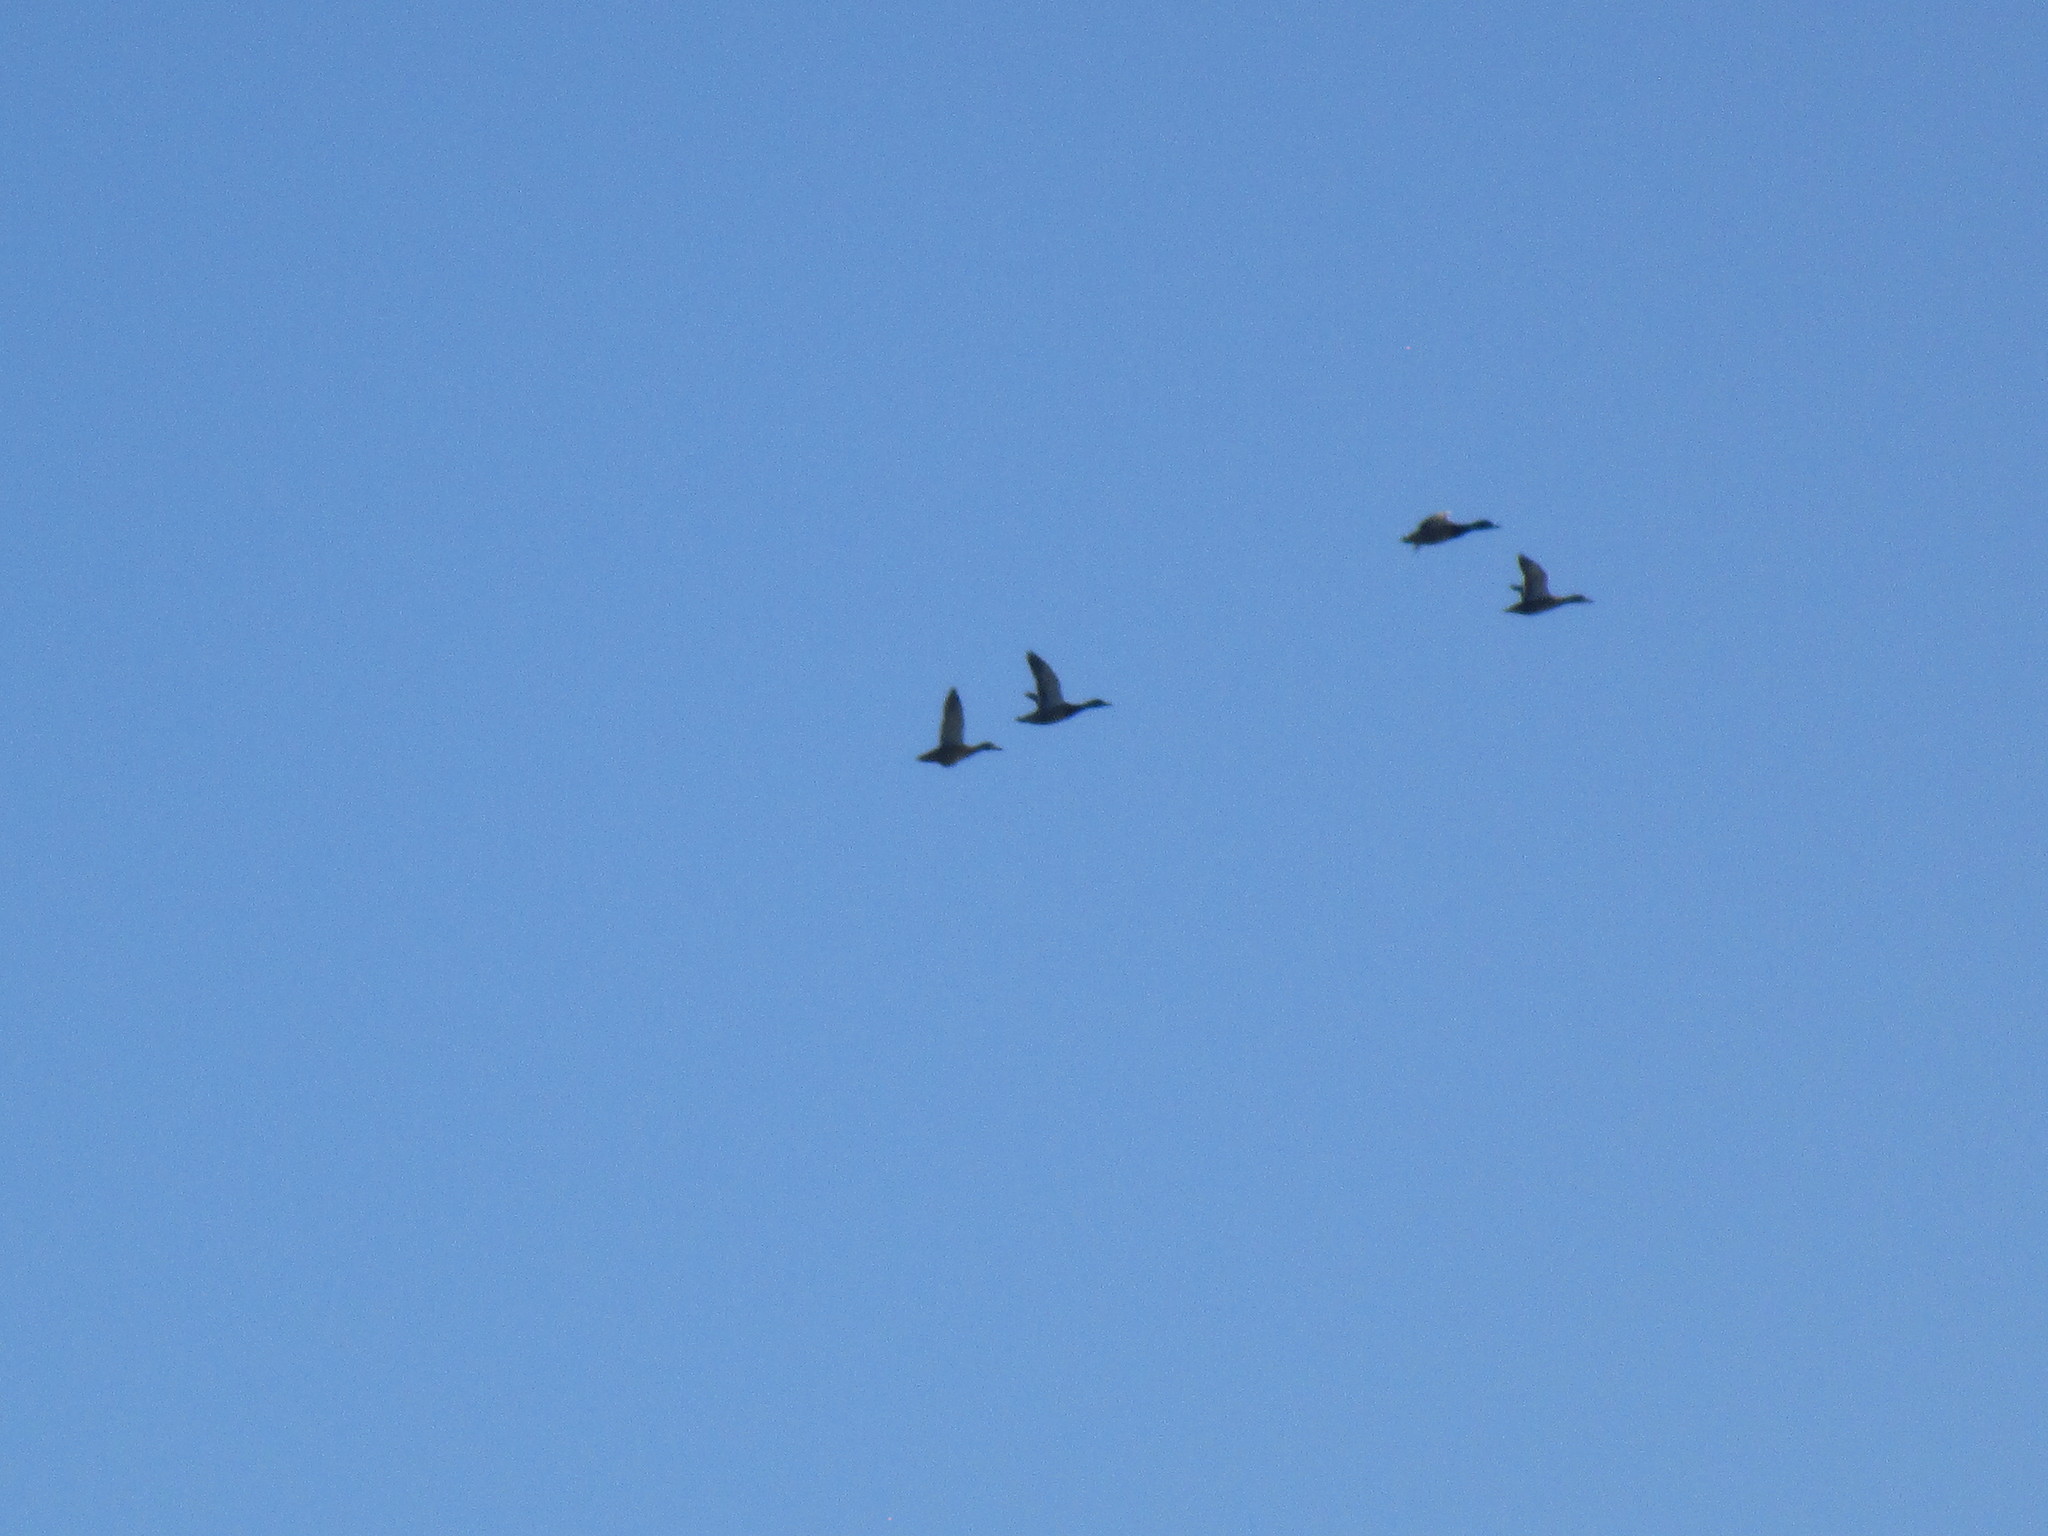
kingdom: Animalia
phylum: Chordata
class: Aves
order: Anseriformes
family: Anatidae
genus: Anas
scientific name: Anas platyrhynchos
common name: Mallard
